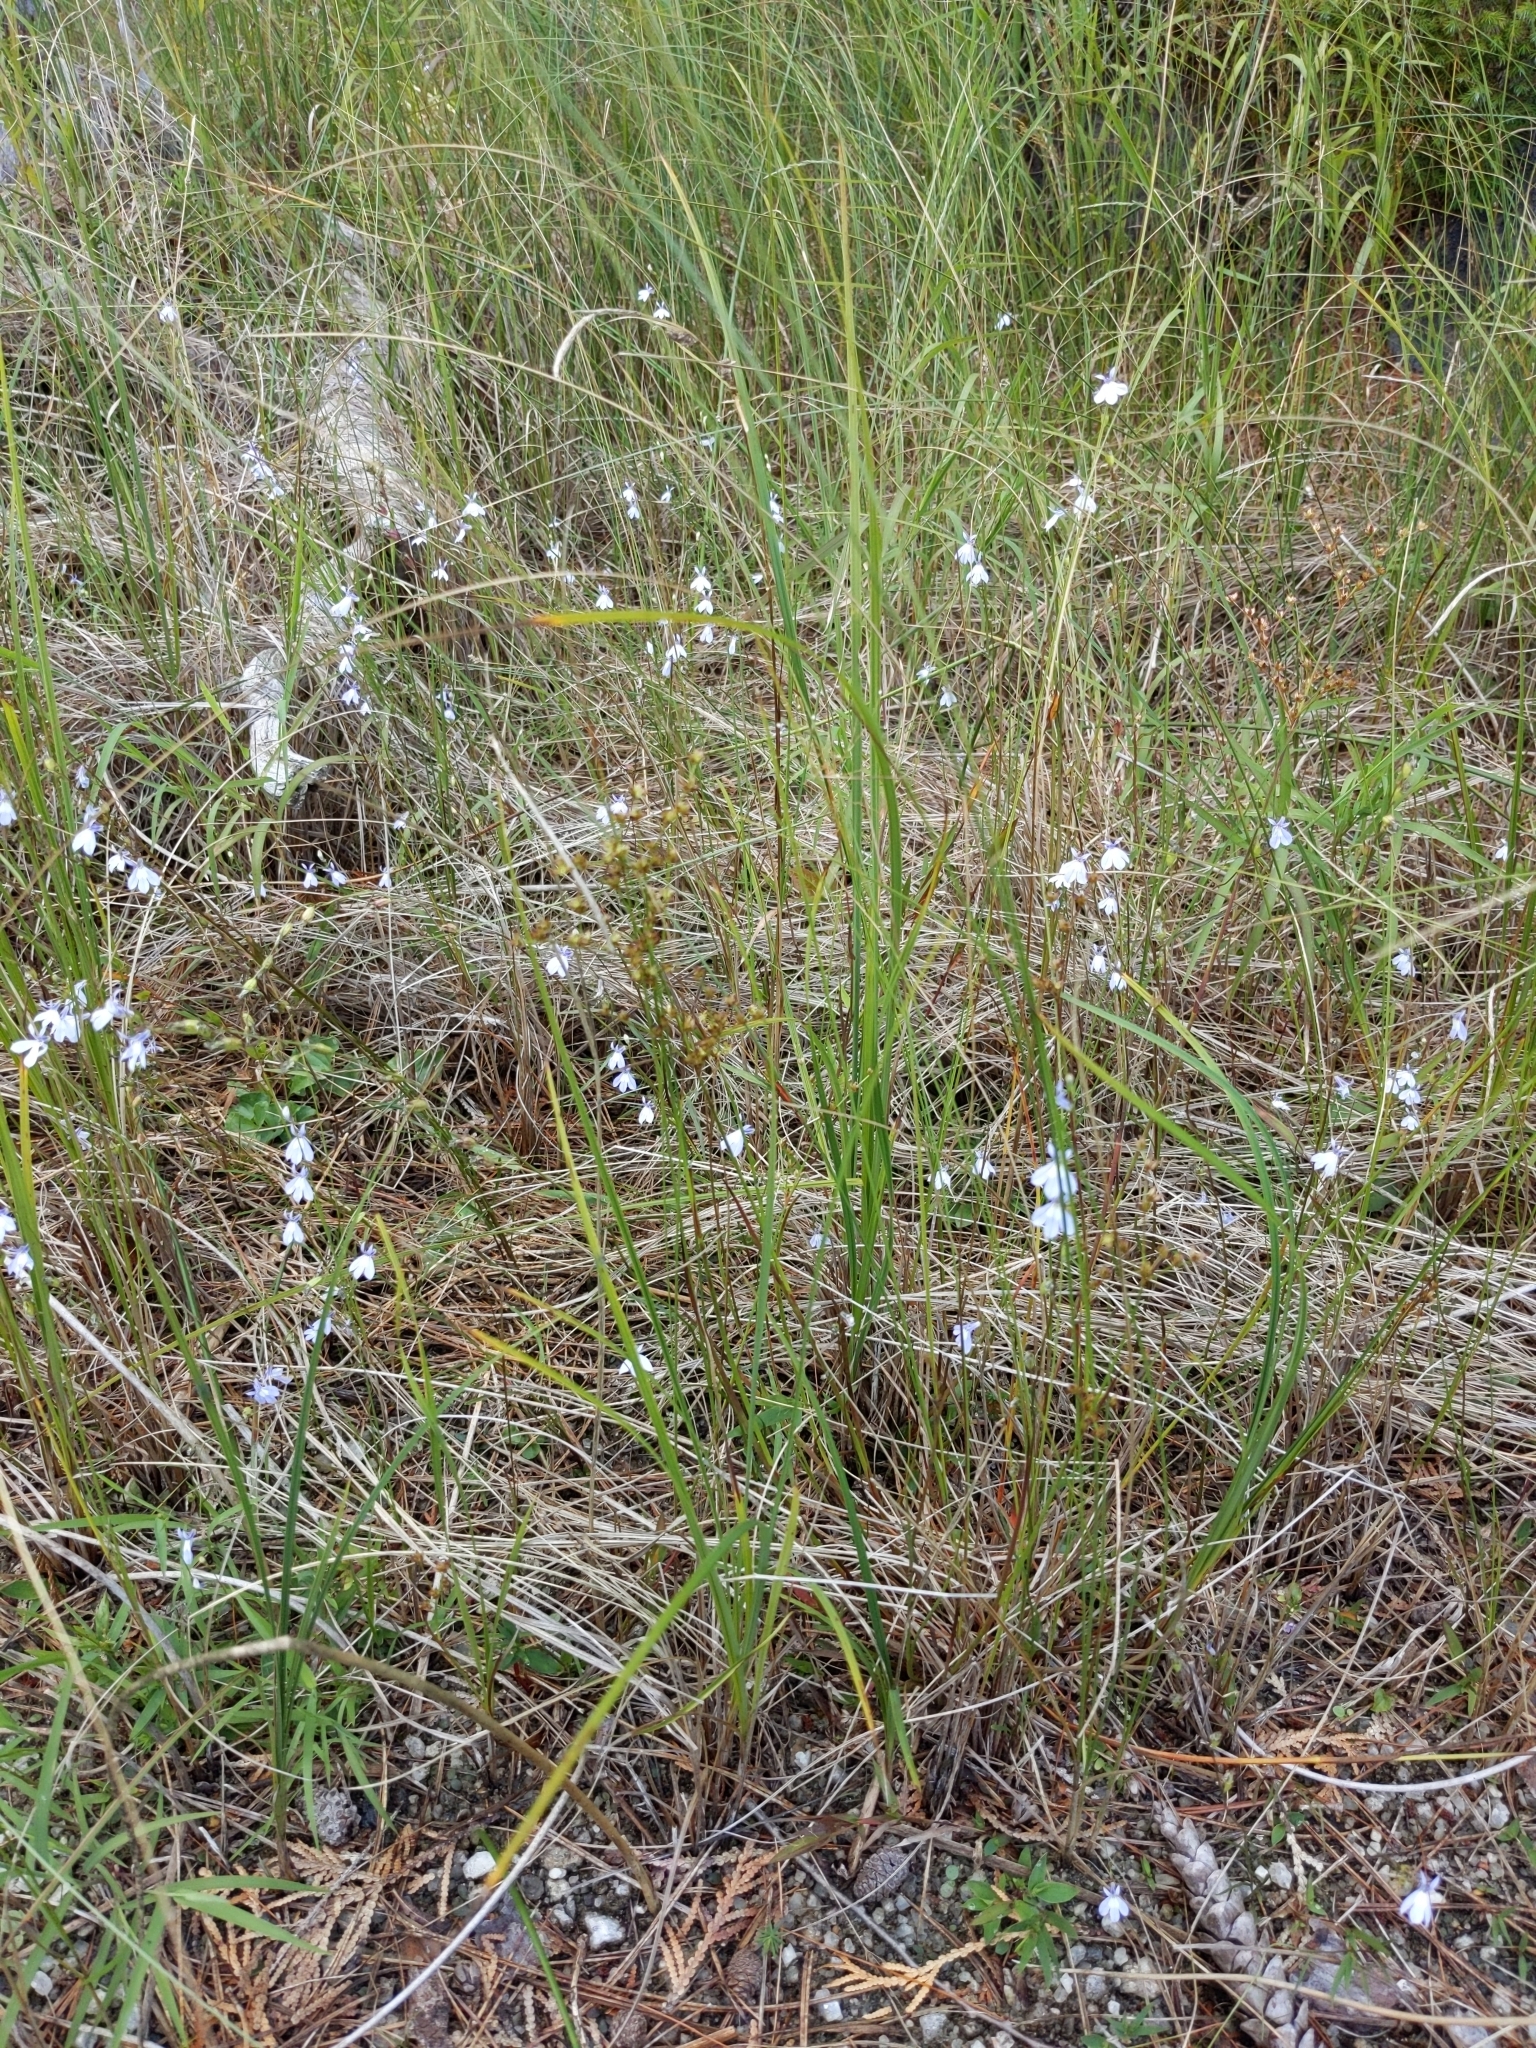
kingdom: Plantae
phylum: Tracheophyta
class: Magnoliopsida
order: Asterales
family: Campanulaceae
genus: Lobelia
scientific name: Lobelia kalmii
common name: Kalm's lobelia
